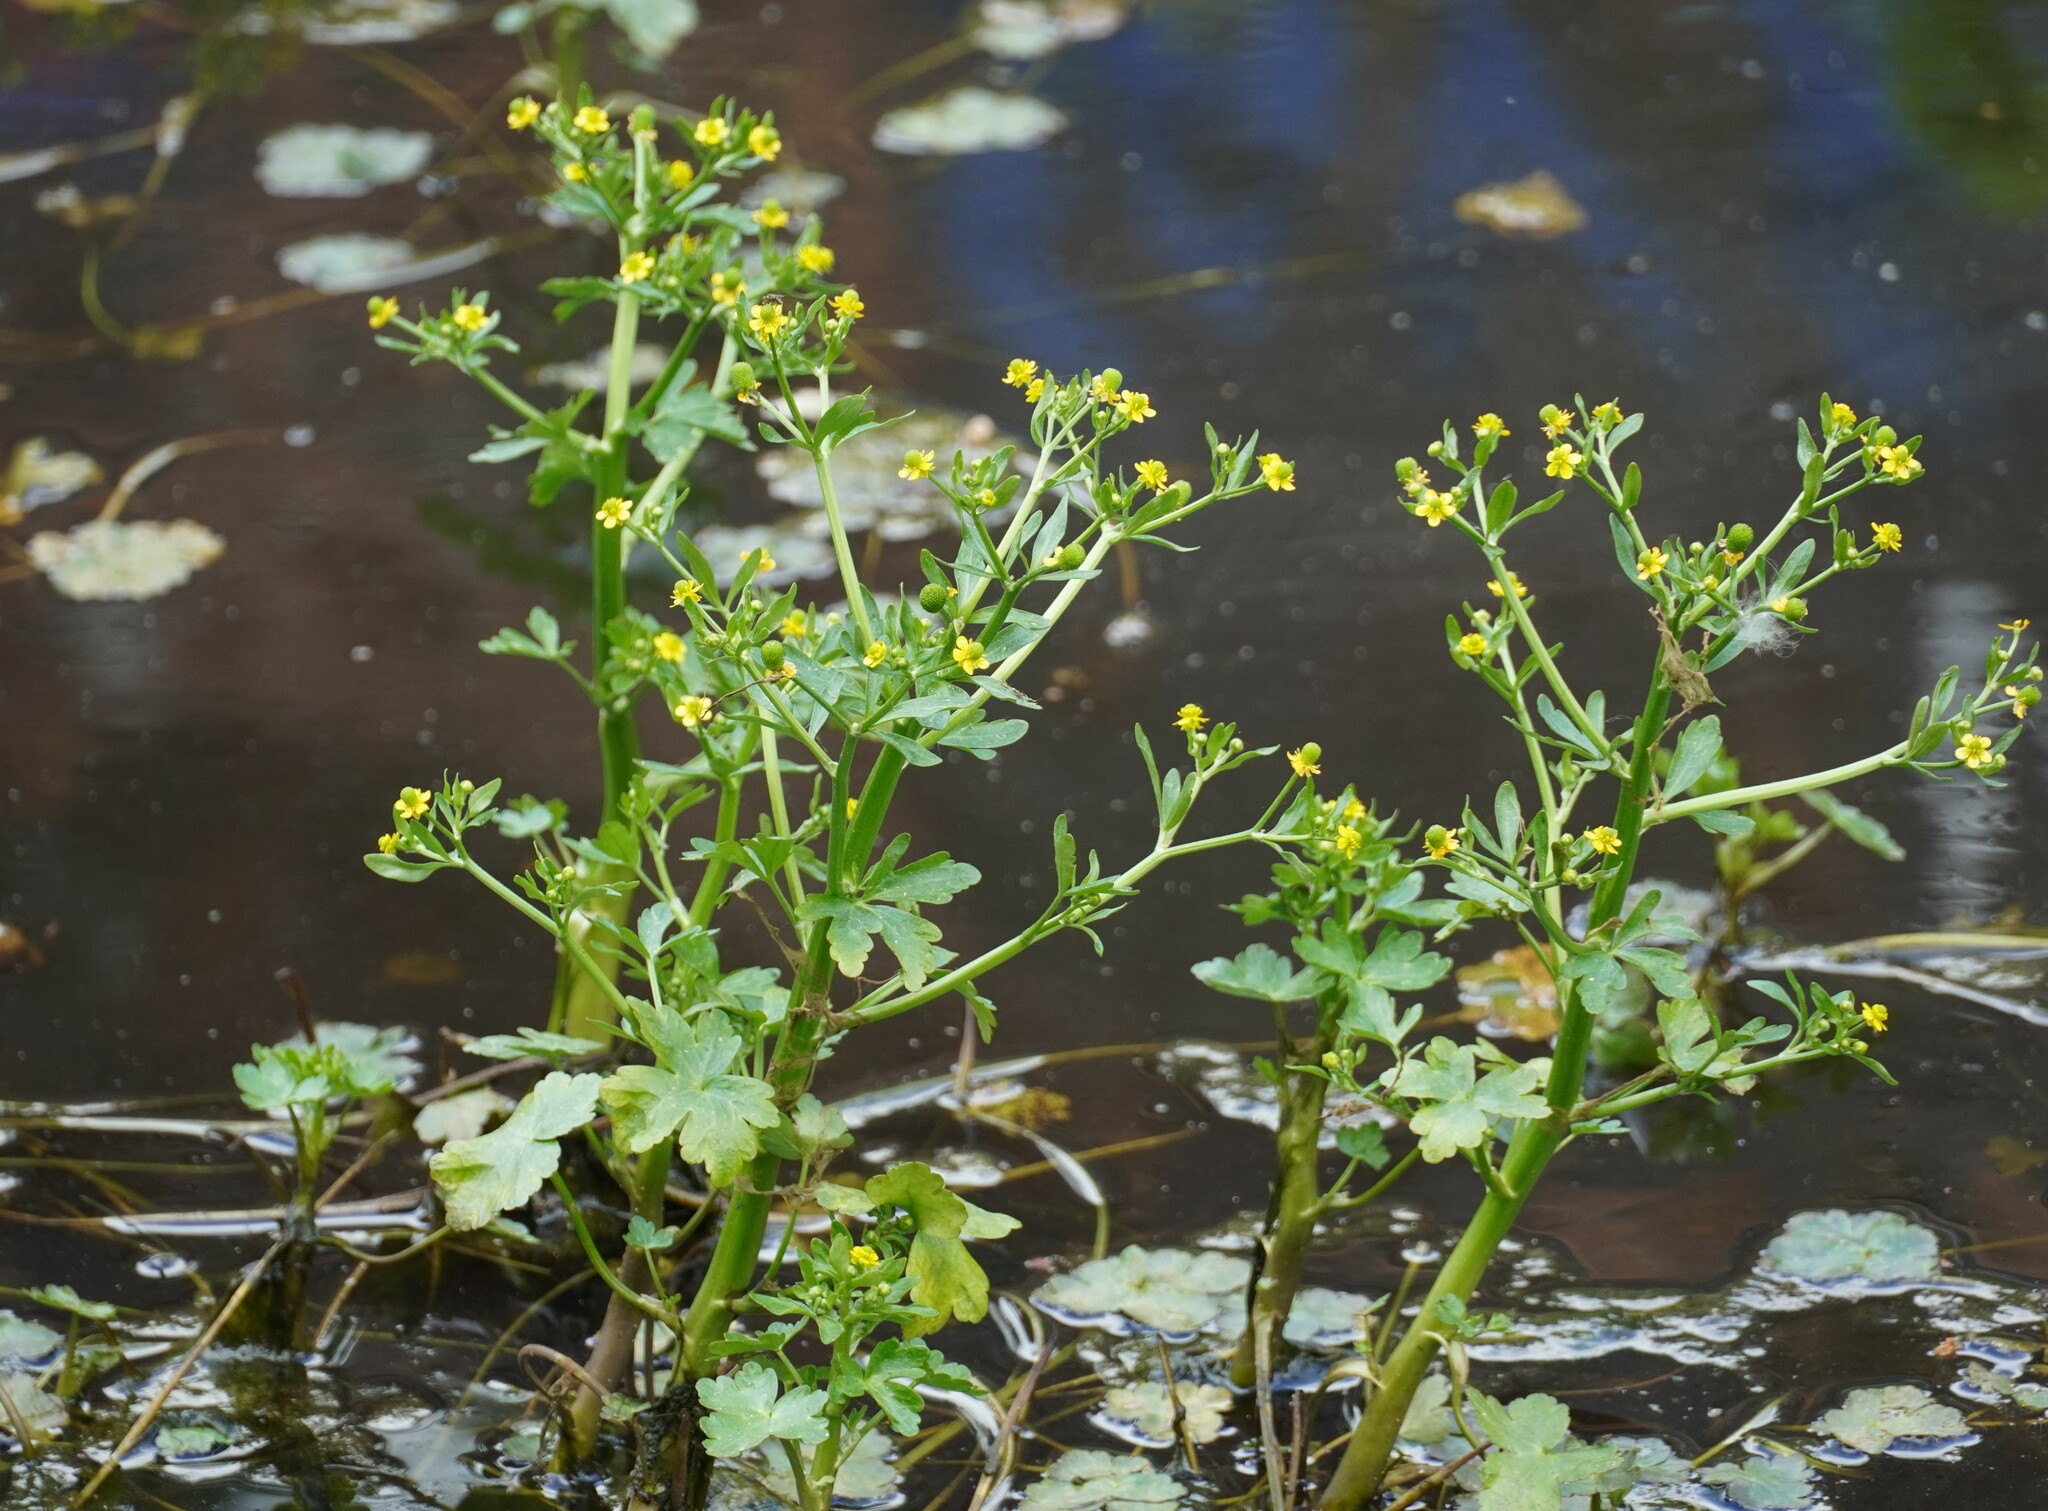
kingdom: Plantae
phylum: Tracheophyta
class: Magnoliopsida
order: Ranunculales
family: Ranunculaceae
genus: Ranunculus
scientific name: Ranunculus sceleratus
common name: Celery-leaved buttercup
